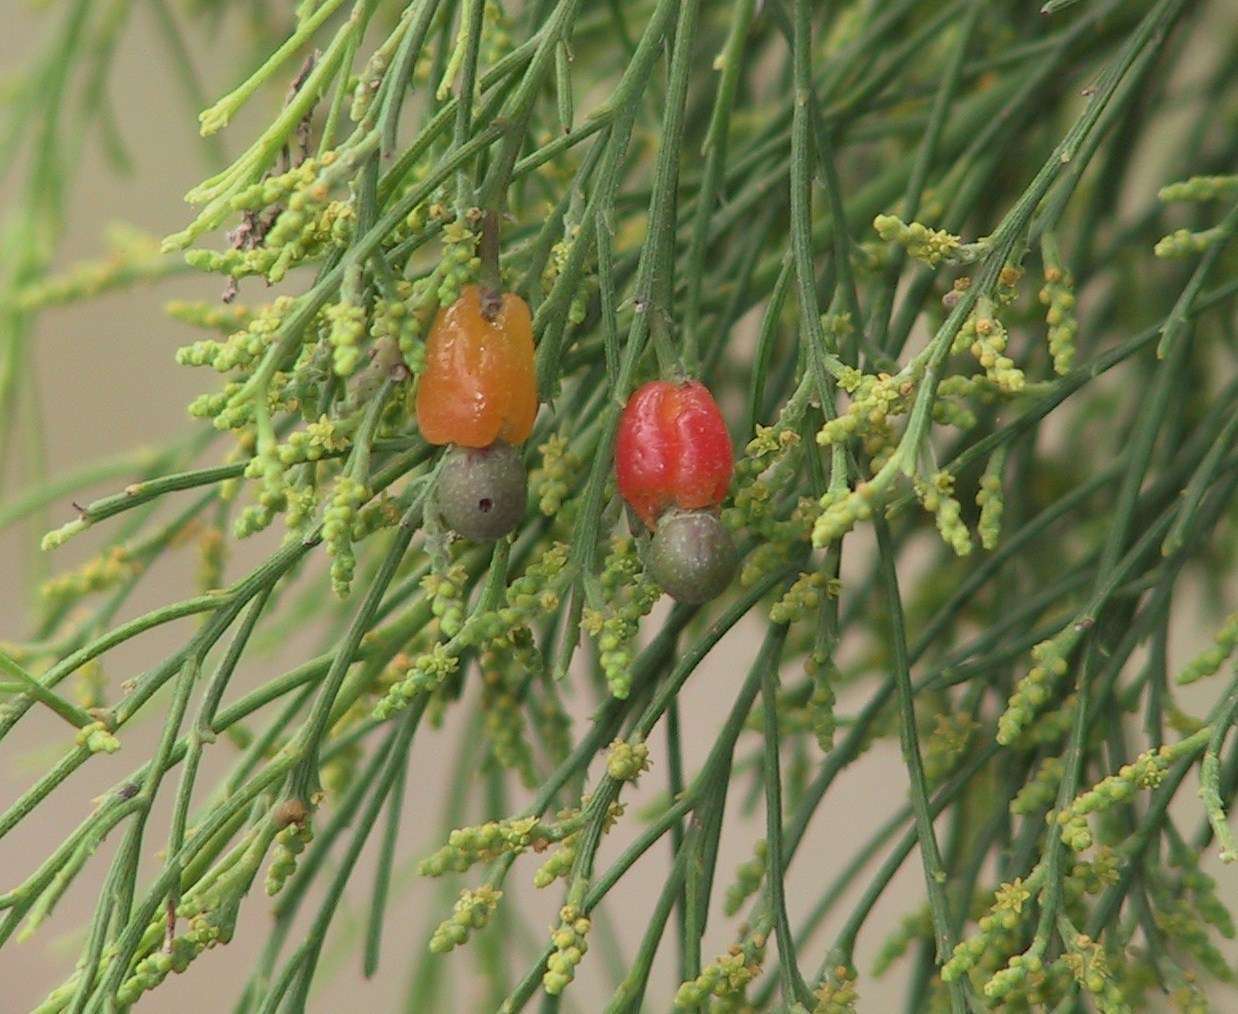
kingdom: Plantae
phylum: Tracheophyta
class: Magnoliopsida
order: Santalales
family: Santalaceae
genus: Exocarpos
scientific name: Exocarpos cupressiformis
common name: Cherry ballart
